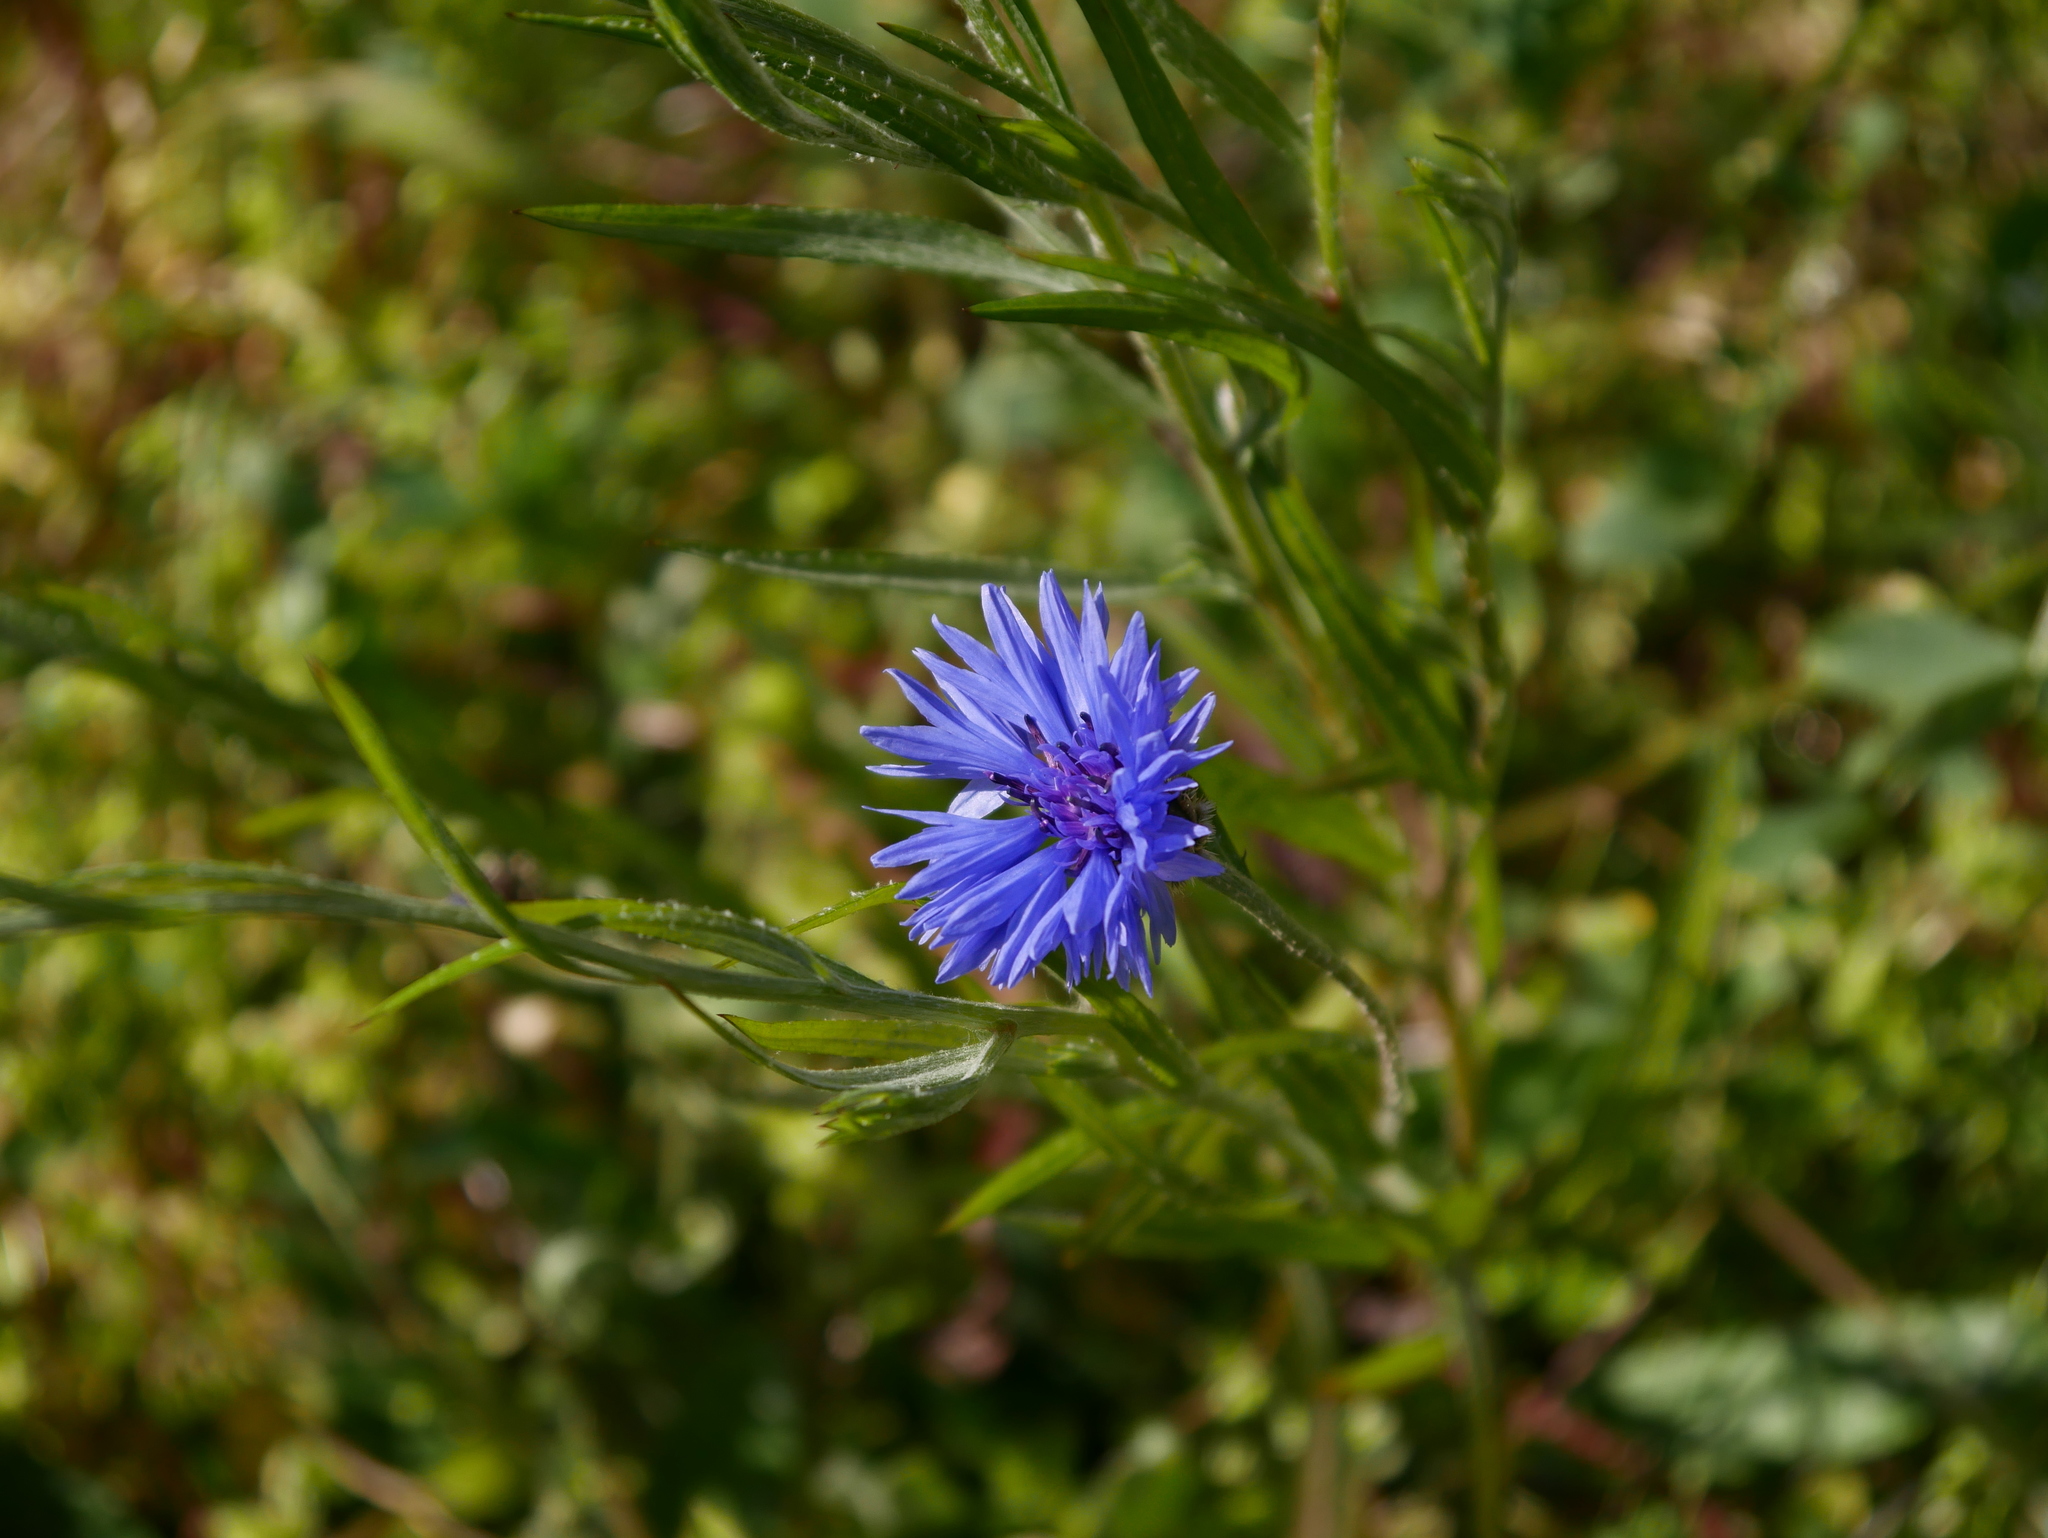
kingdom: Plantae
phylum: Tracheophyta
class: Magnoliopsida
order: Asterales
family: Asteraceae
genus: Centaurea
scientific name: Centaurea cyanus
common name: Cornflower
